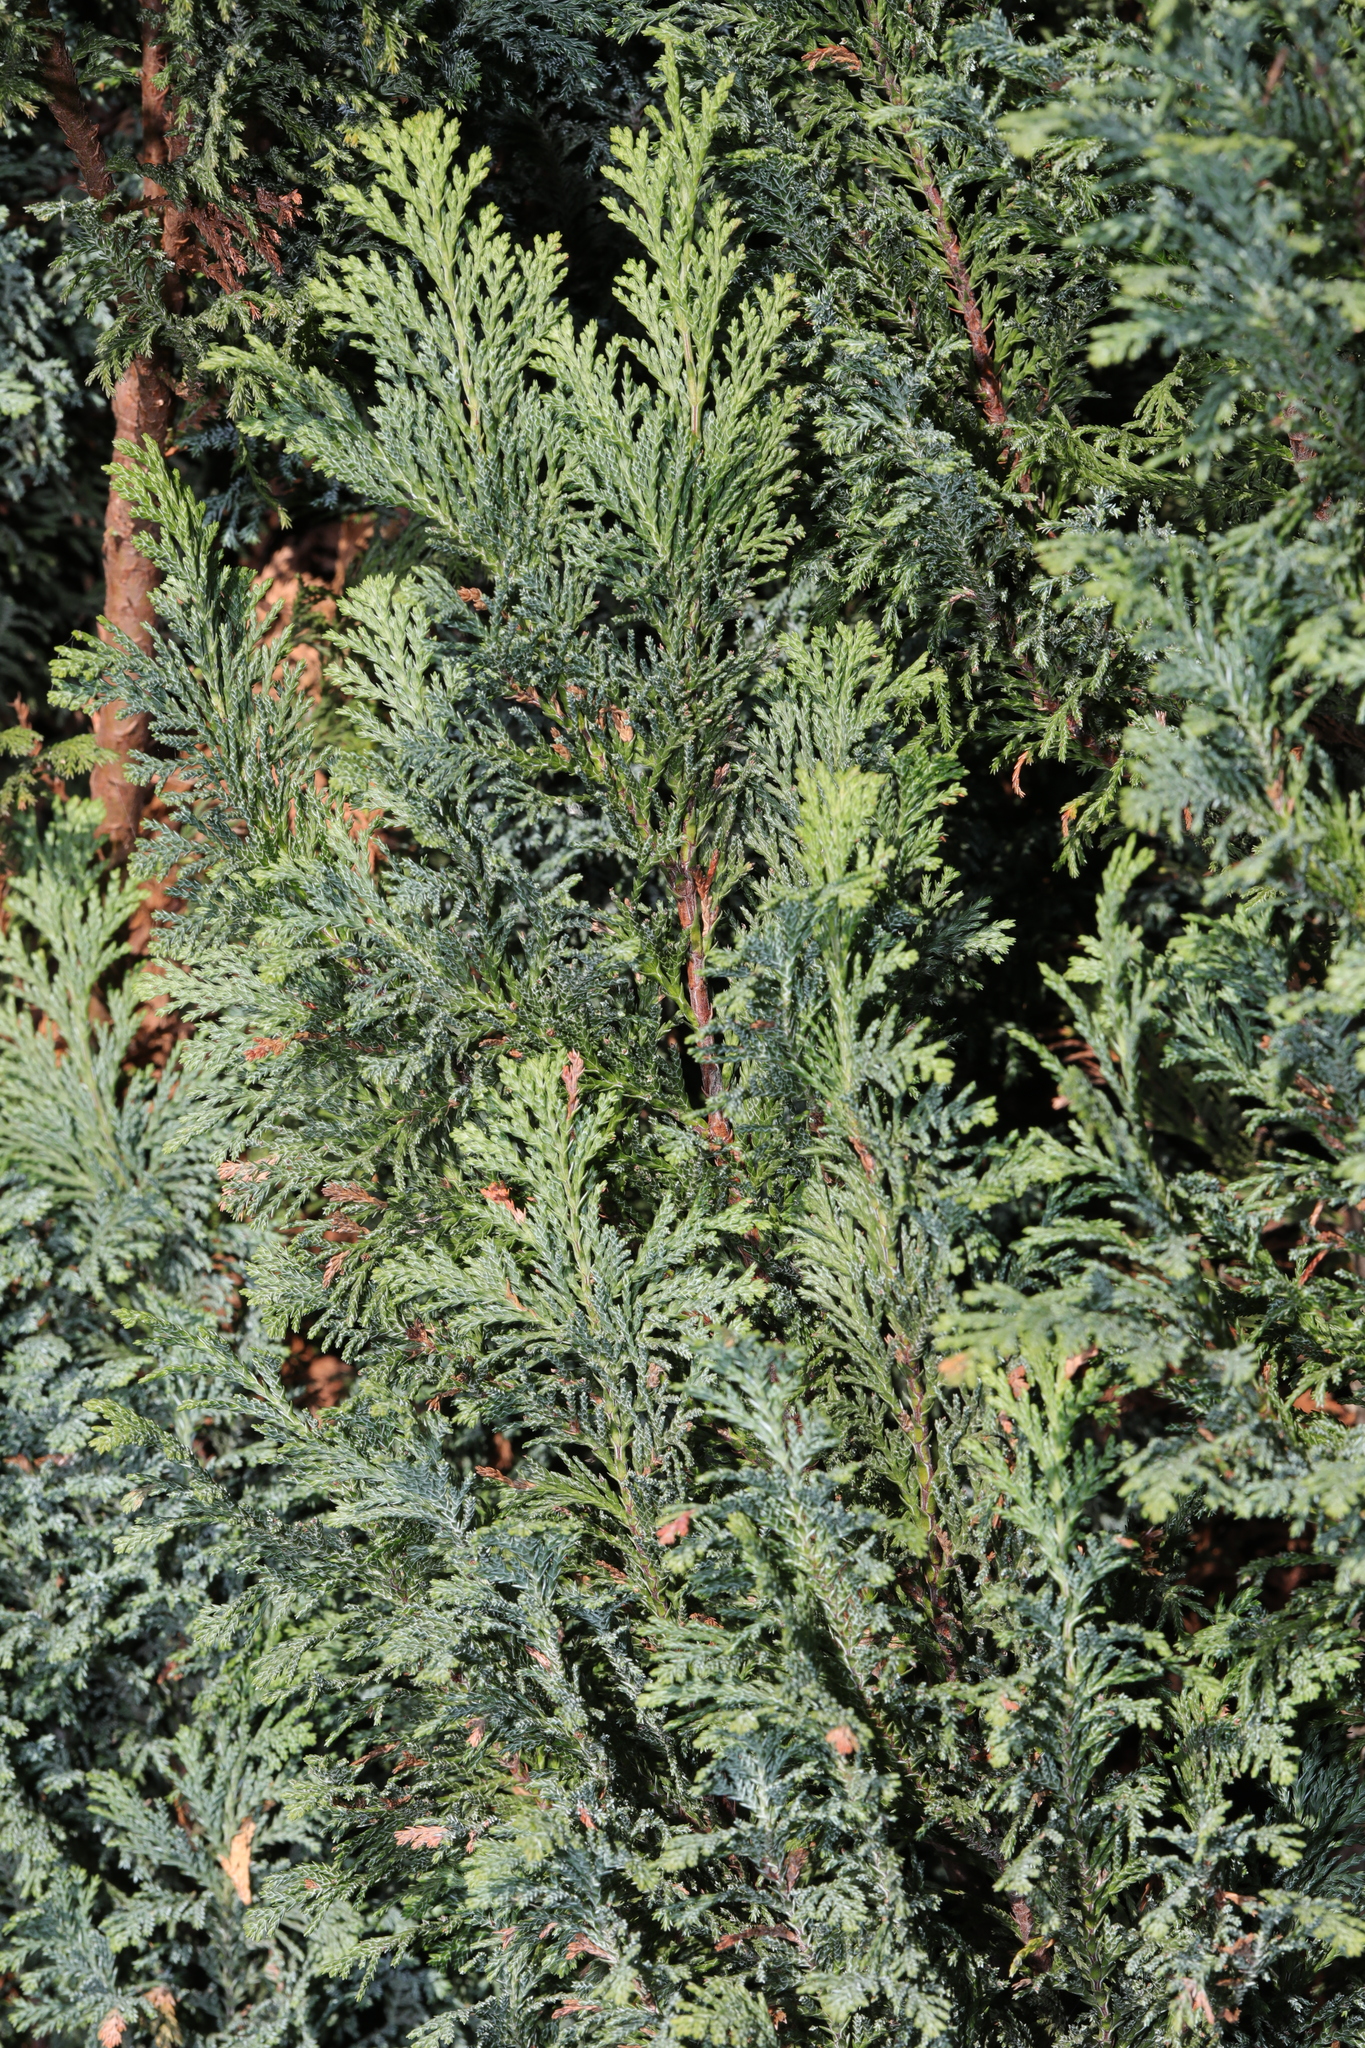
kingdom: Plantae
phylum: Tracheophyta
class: Pinopsida
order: Pinales
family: Cupressaceae
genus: Chamaecyparis
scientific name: Chamaecyparis lawsoniana
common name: Lawson's cypress
